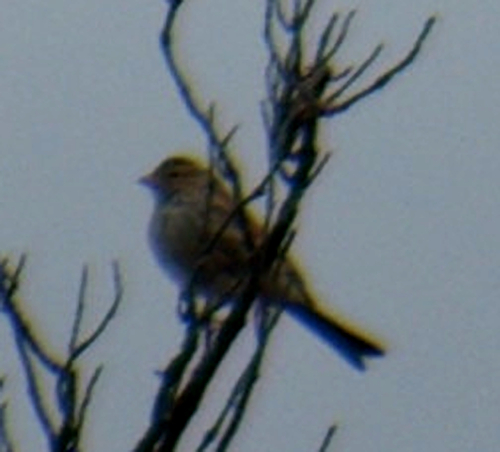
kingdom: Animalia
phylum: Chordata
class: Aves
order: Passeriformes
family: Passerellidae
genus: Spizella
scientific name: Spizella passerina
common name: Chipping sparrow
